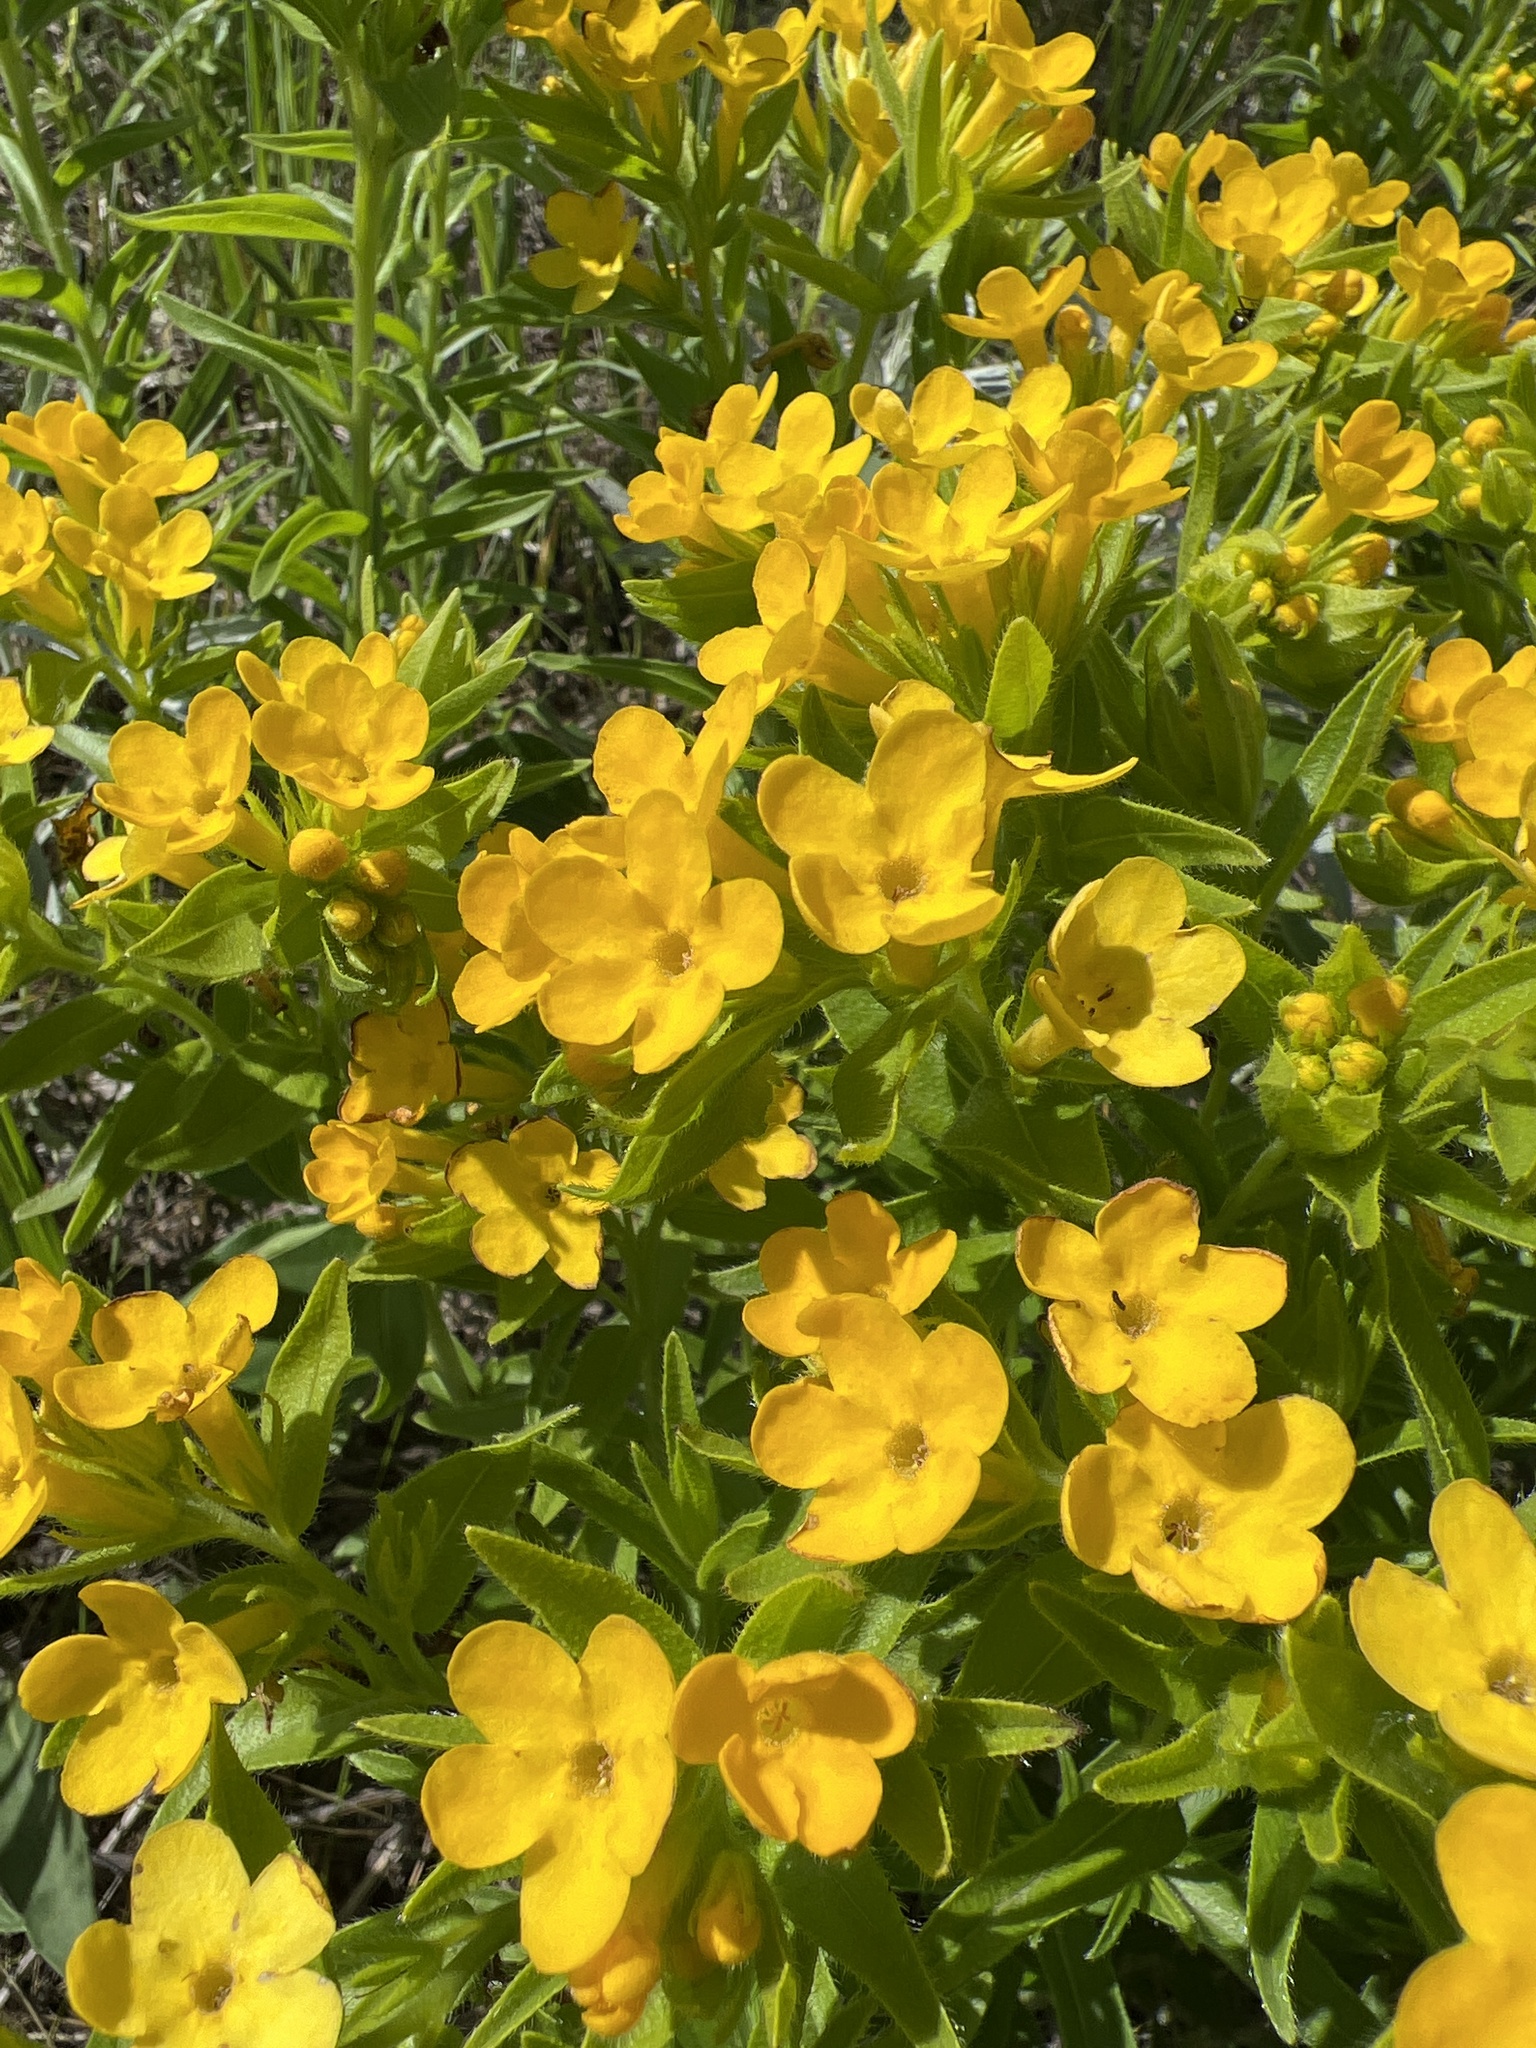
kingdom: Plantae
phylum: Tracheophyta
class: Magnoliopsida
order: Boraginales
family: Boraginaceae
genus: Lithospermum
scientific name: Lithospermum caroliniense
